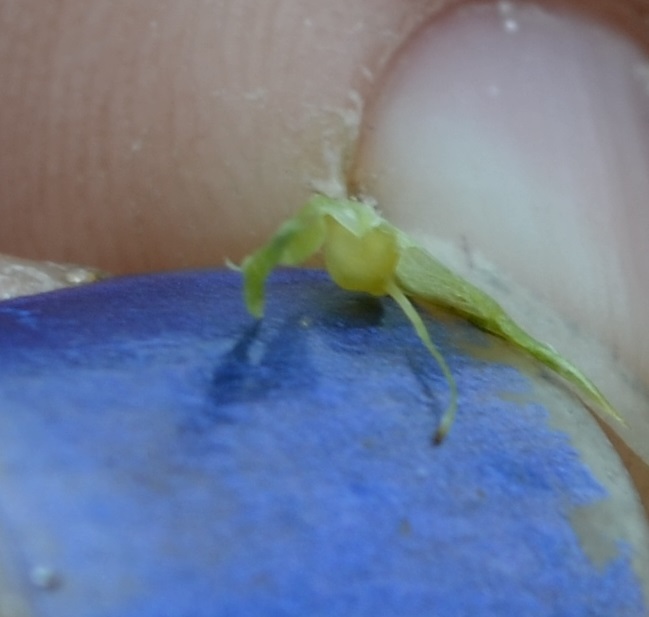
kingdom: Plantae
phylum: Tracheophyta
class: Liliopsida
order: Poales
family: Cyperaceae
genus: Carex
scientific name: Carex hystericina
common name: Bottlebrush sedge
